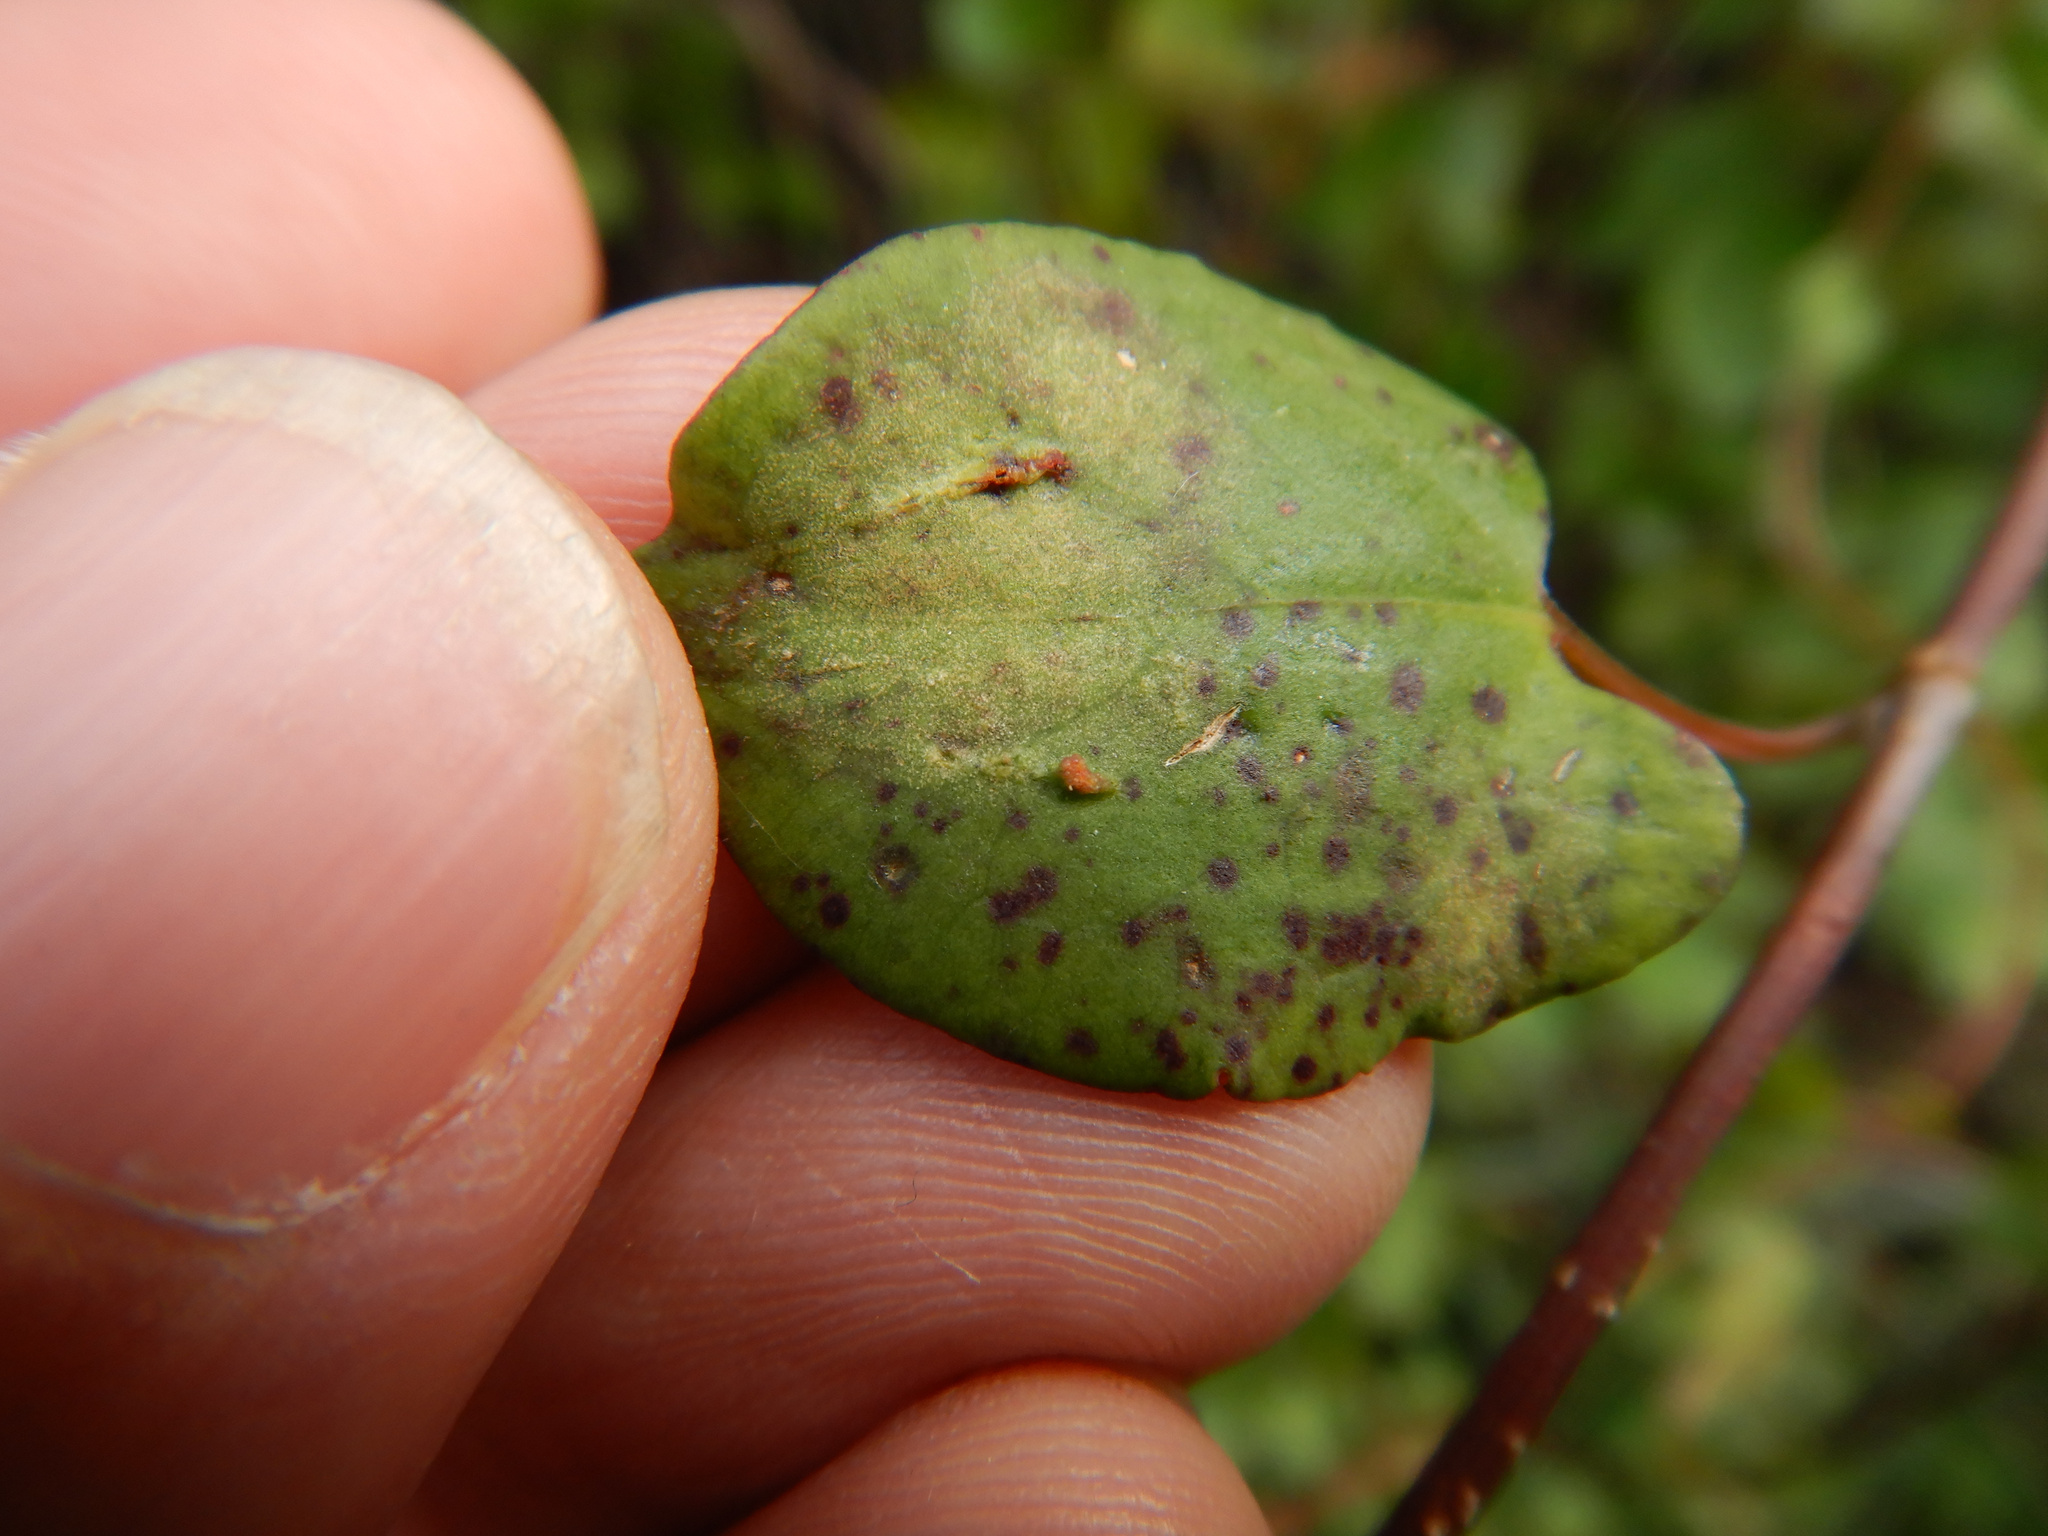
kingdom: Animalia
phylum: Arthropoda
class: Arachnida
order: Trombidiformes
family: Eriophyidae
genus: Aceria
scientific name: Aceria lamii
